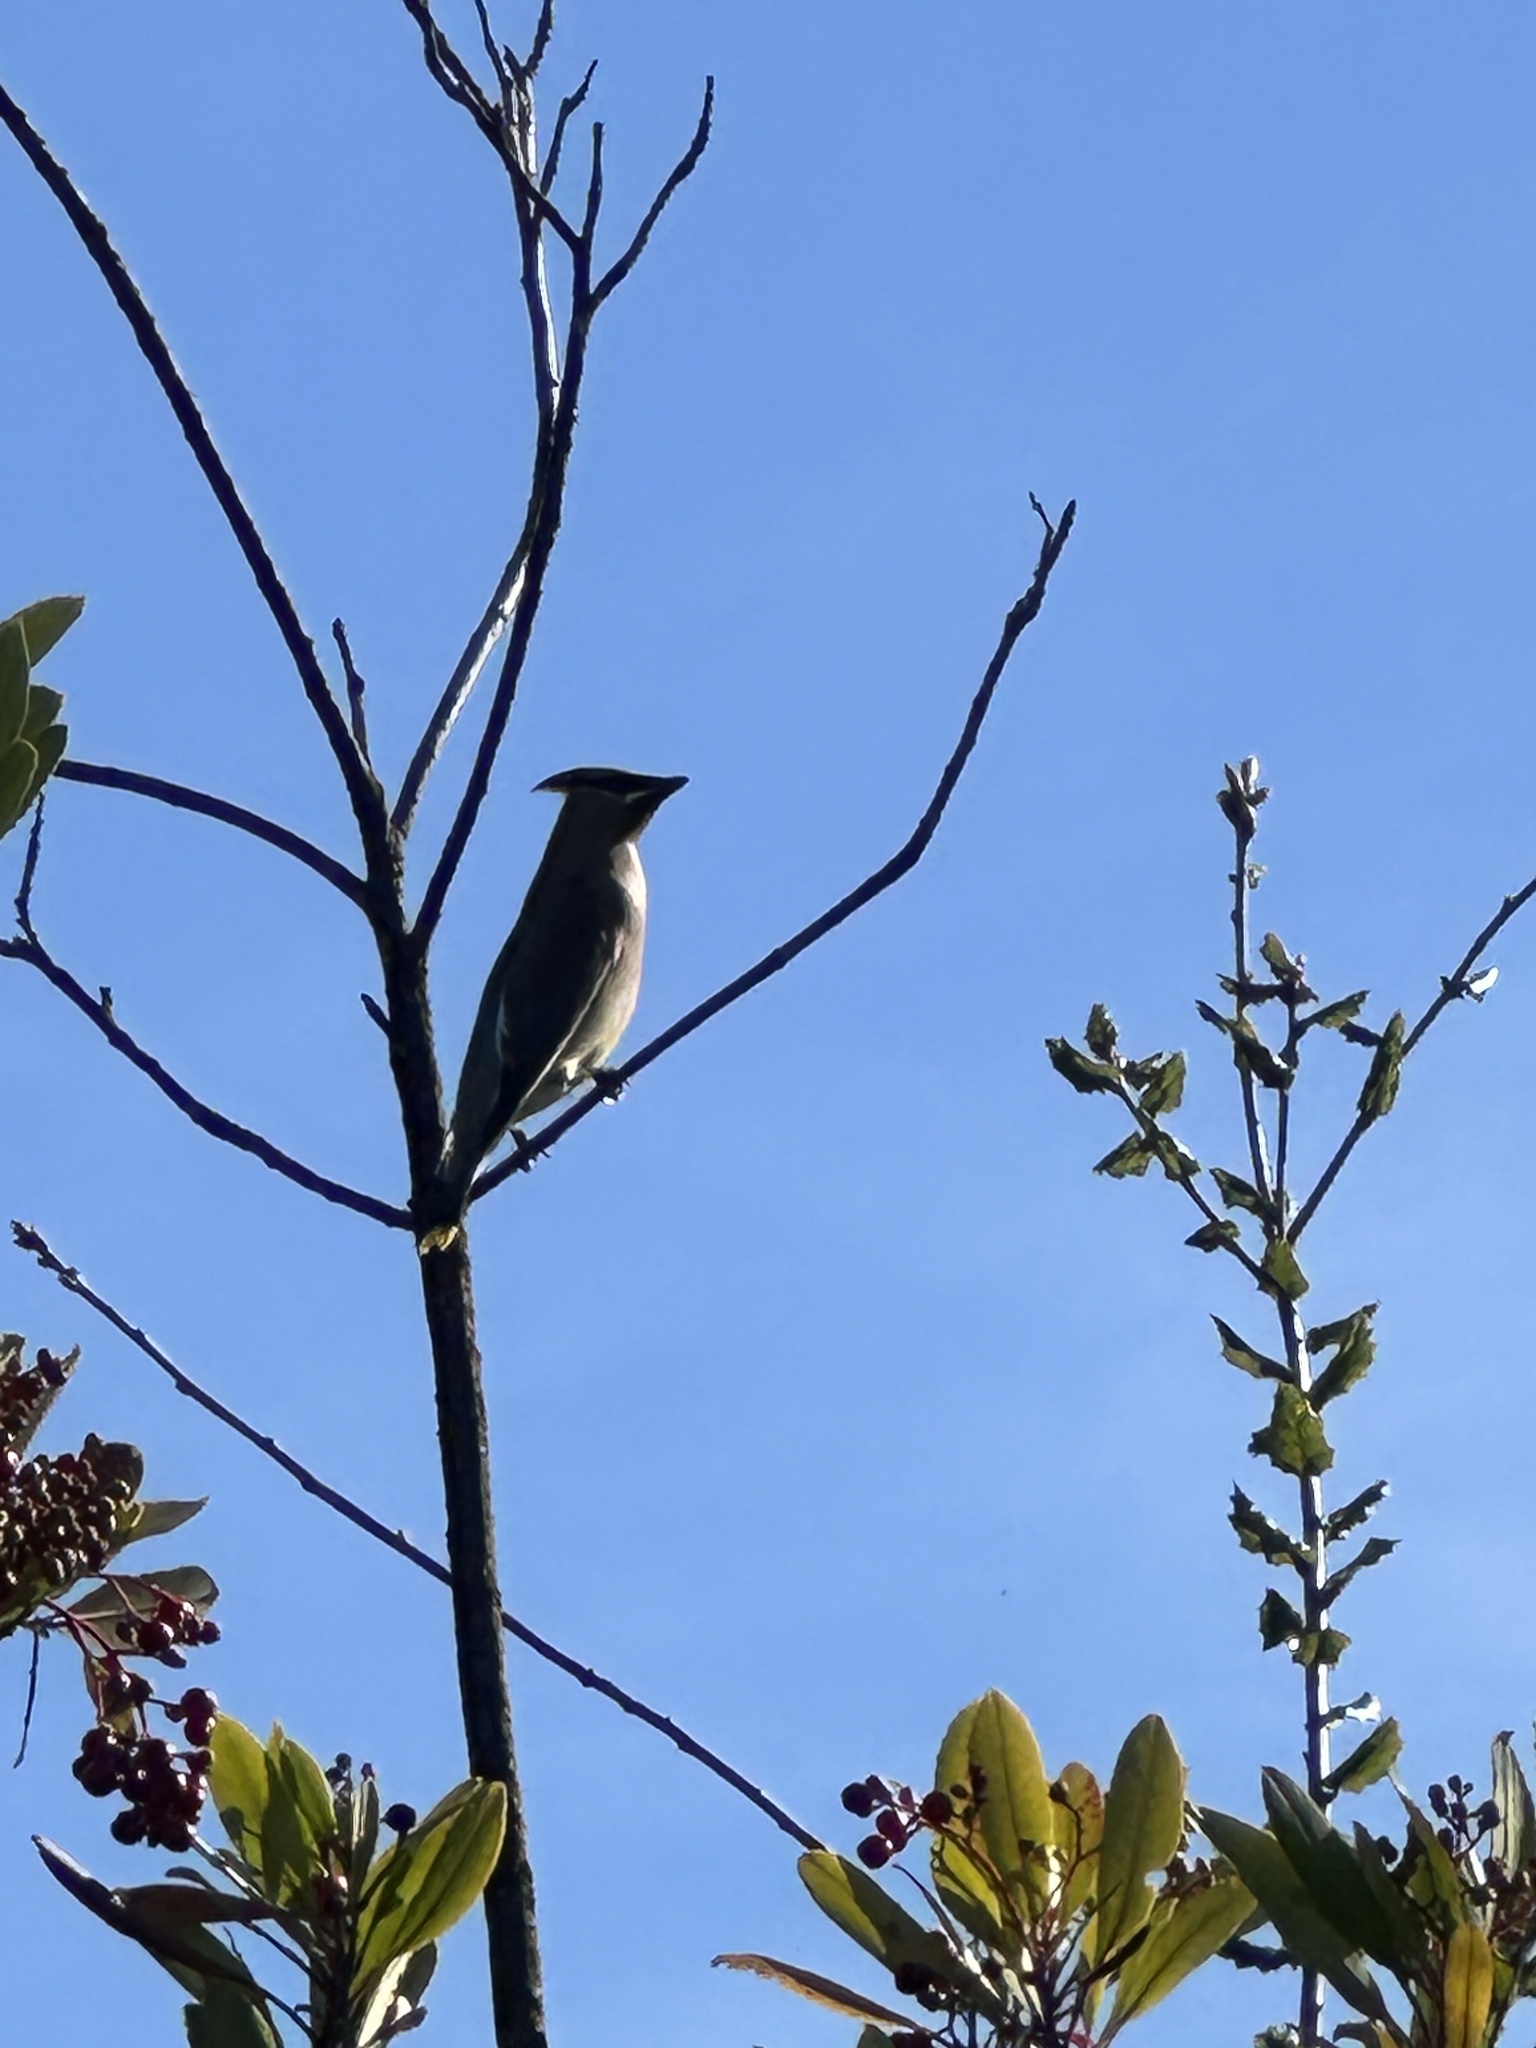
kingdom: Animalia
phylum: Chordata
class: Aves
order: Passeriformes
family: Bombycillidae
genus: Bombycilla
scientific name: Bombycilla cedrorum
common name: Cedar waxwing
